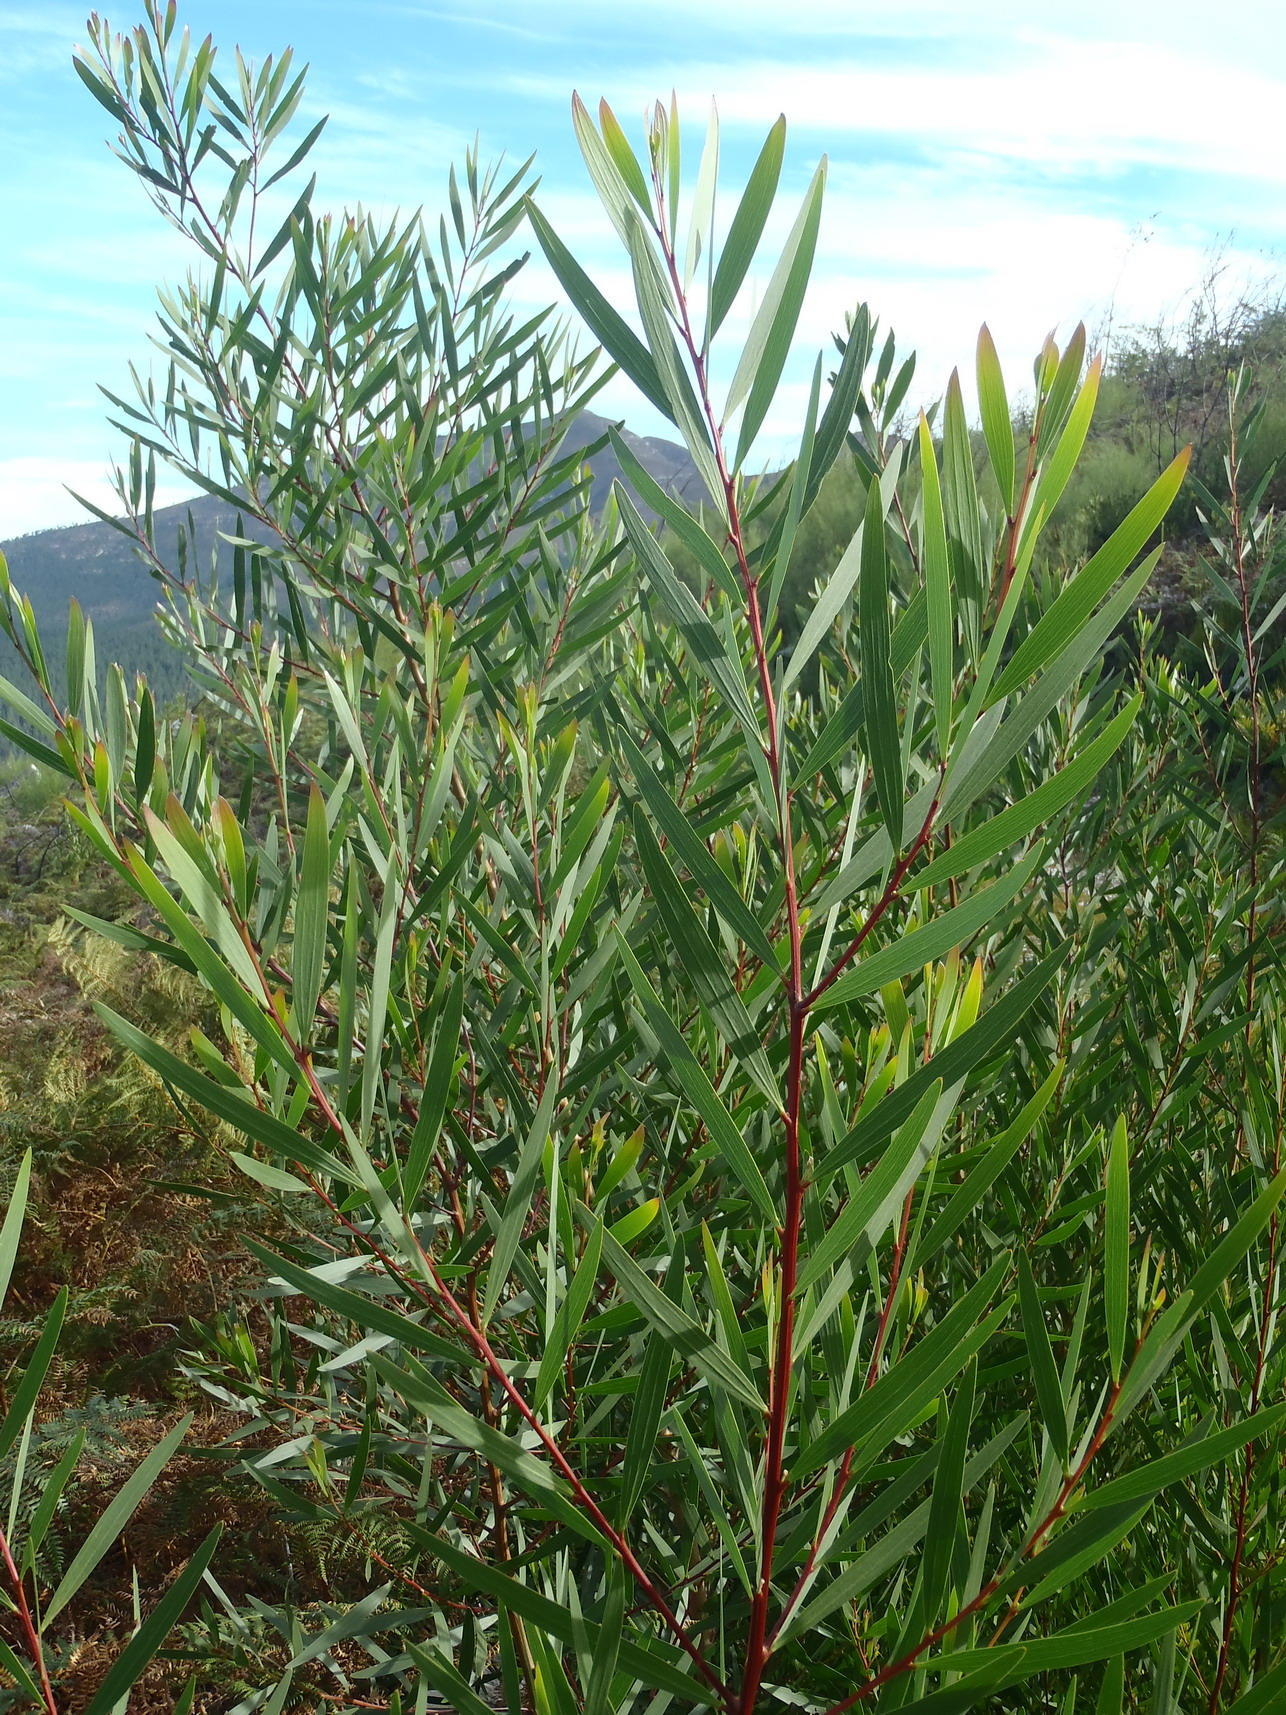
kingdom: Plantae
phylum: Tracheophyta
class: Magnoliopsida
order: Fabales
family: Fabaceae
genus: Acacia
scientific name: Acacia longifolia
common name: Sydney golden wattle
